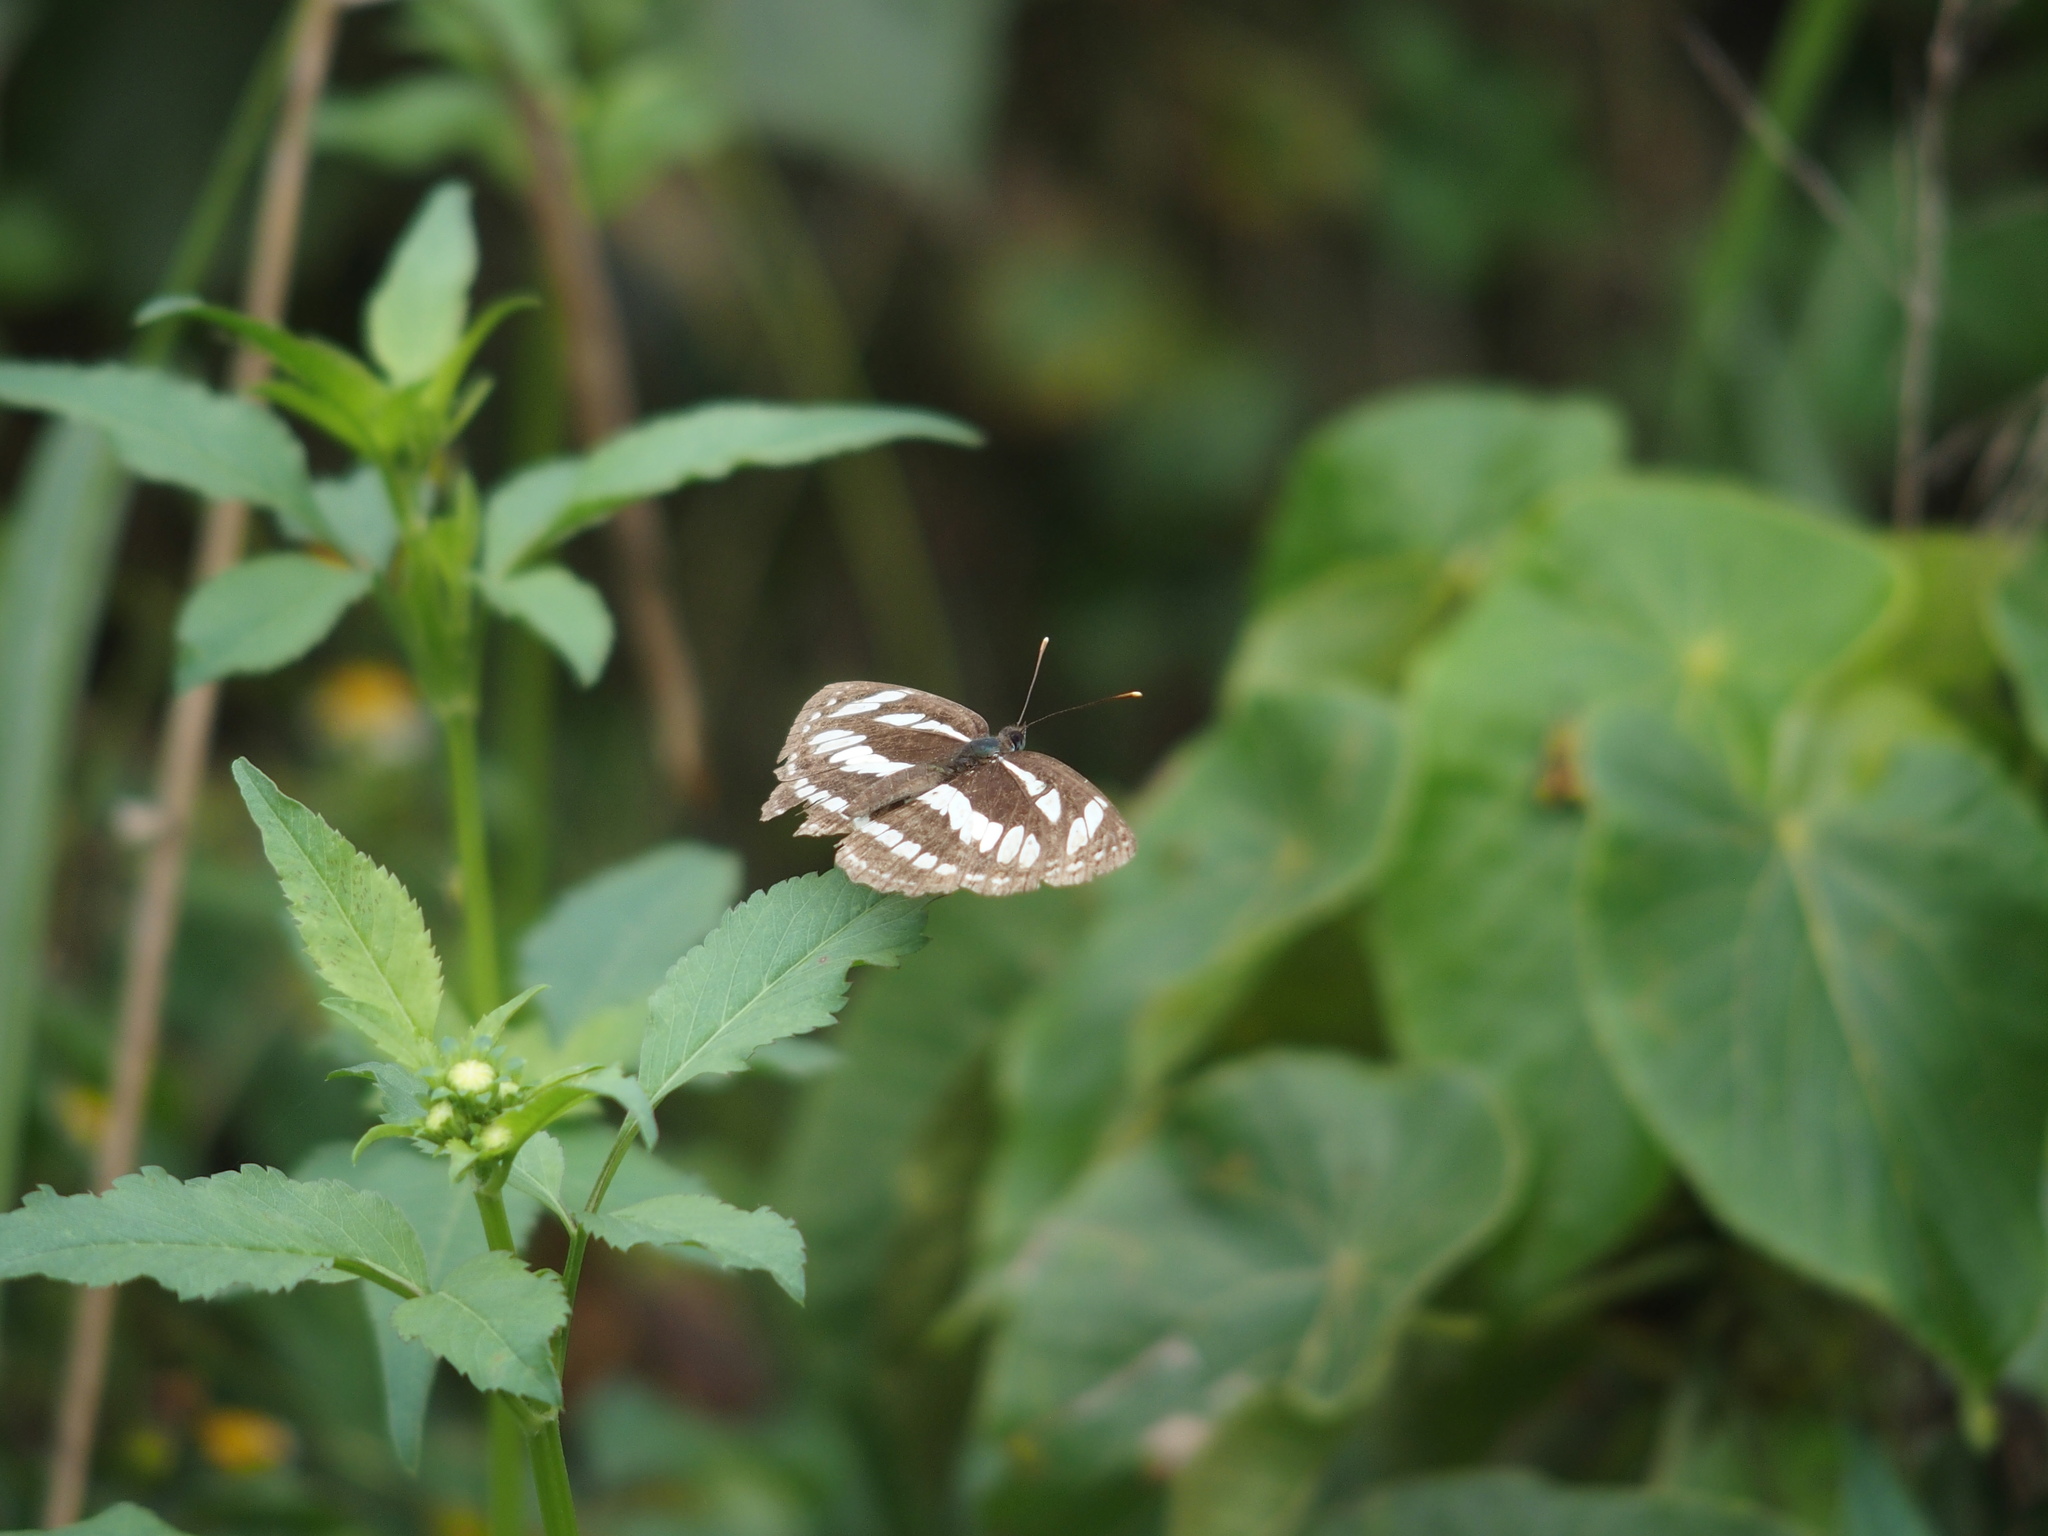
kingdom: Animalia
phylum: Arthropoda
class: Insecta
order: Lepidoptera
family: Nymphalidae
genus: Neptis
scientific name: Neptis hylas
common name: Common sailer
